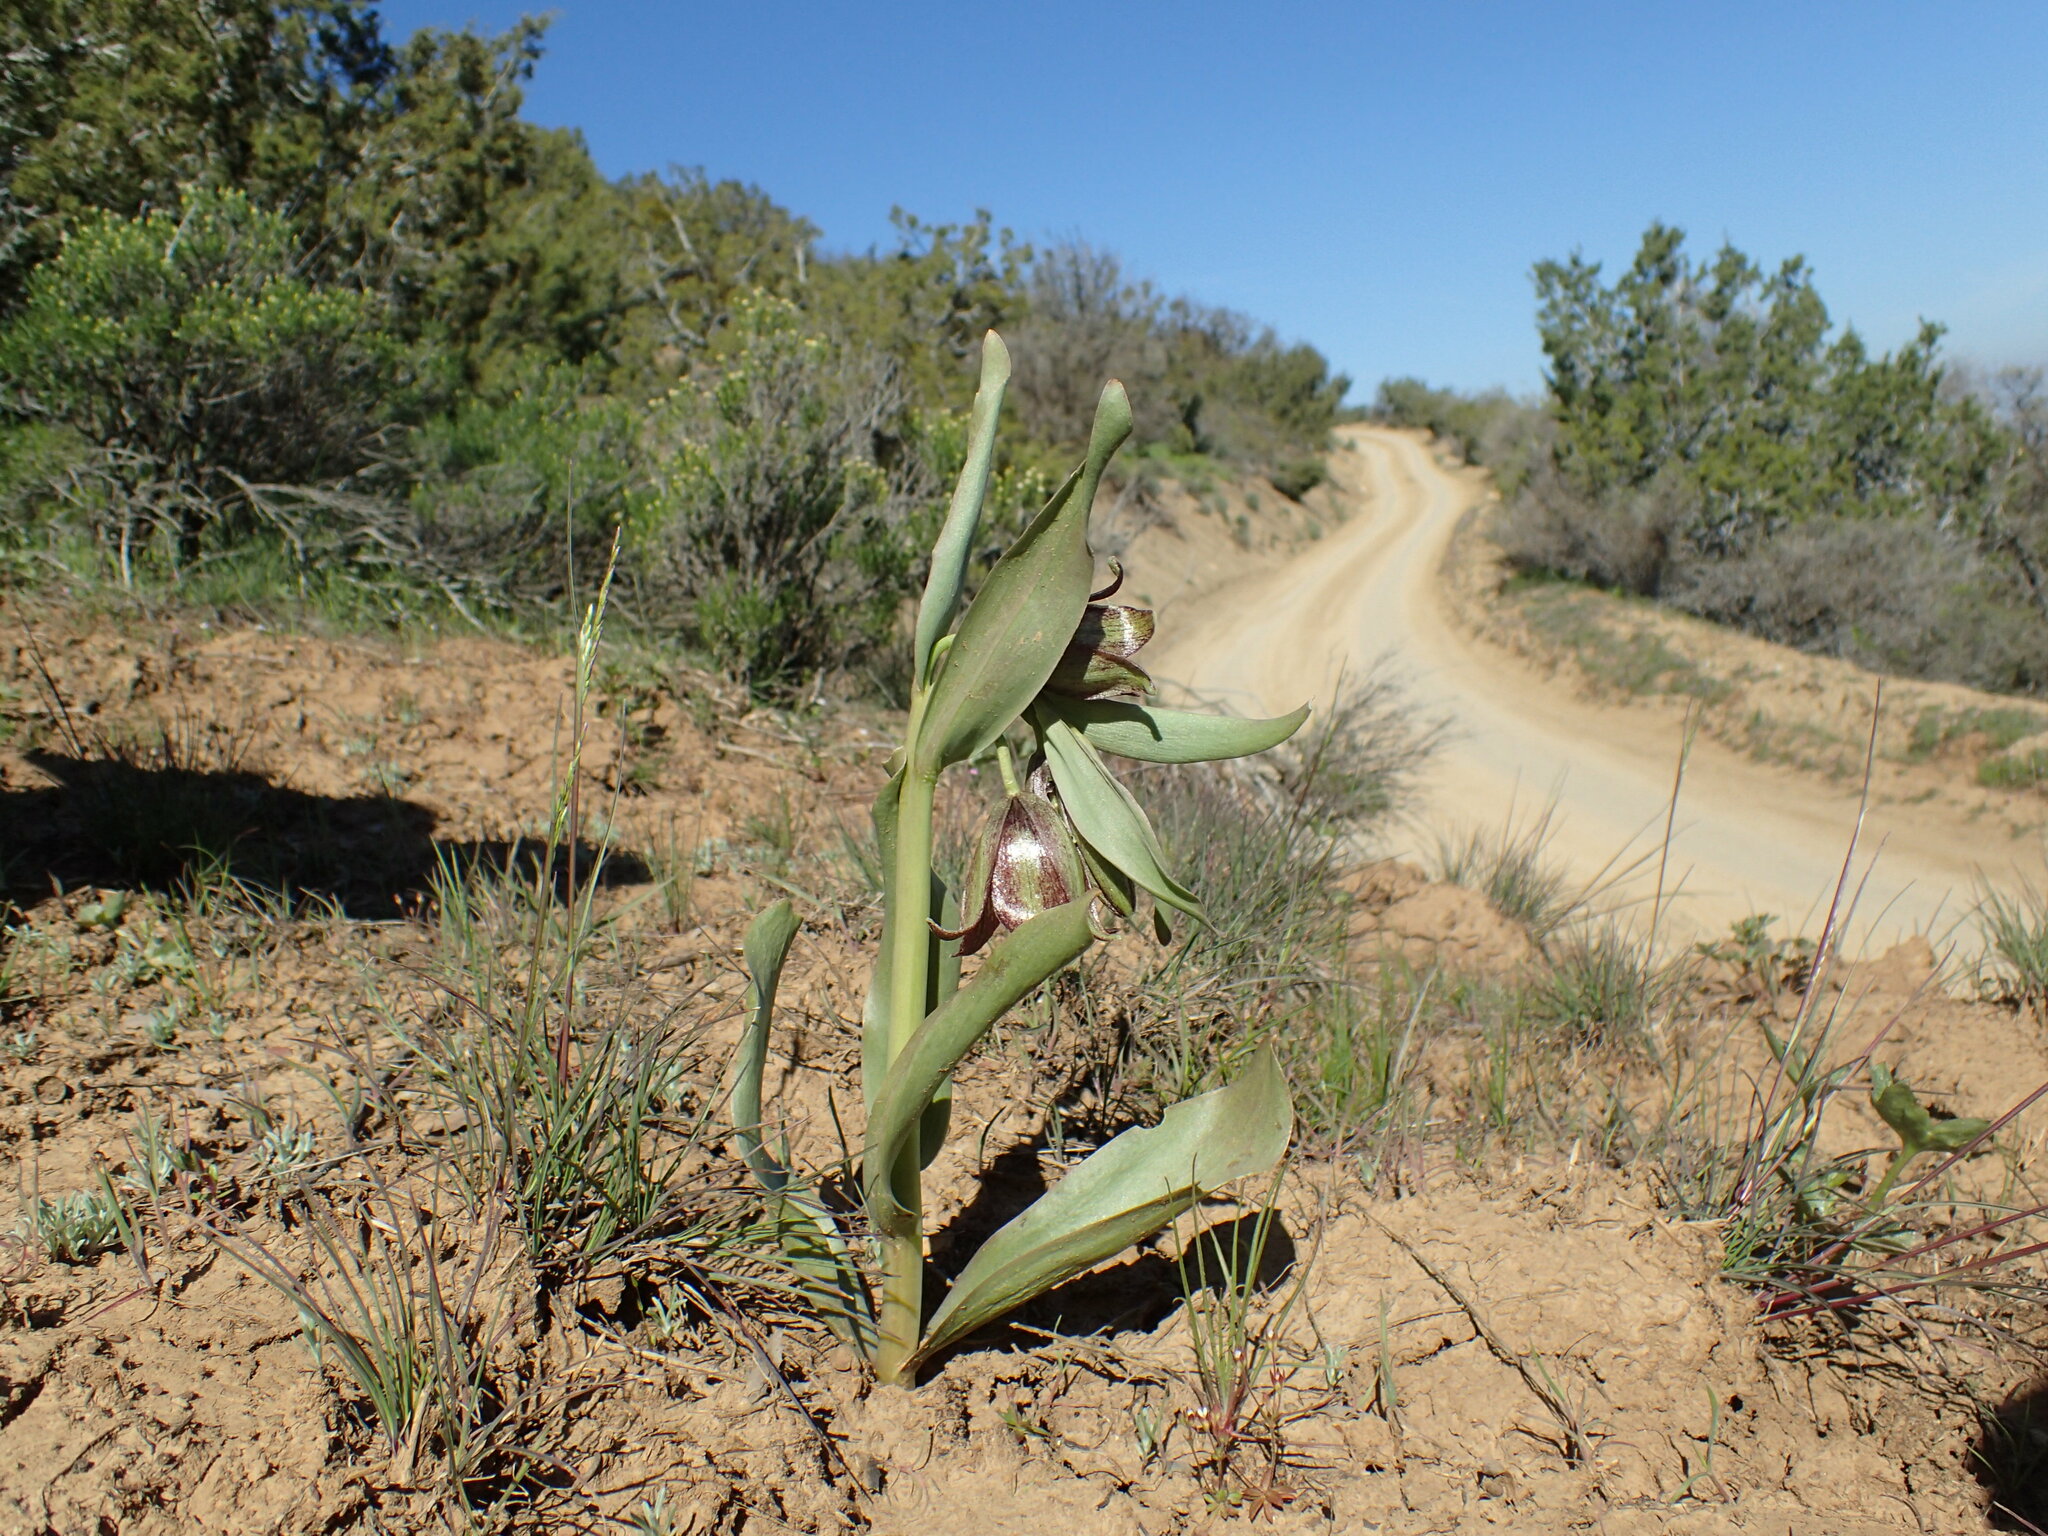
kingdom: Plantae
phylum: Tracheophyta
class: Liliopsida
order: Liliales
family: Liliaceae
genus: Fritillaria
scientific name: Fritillaria agrestis
